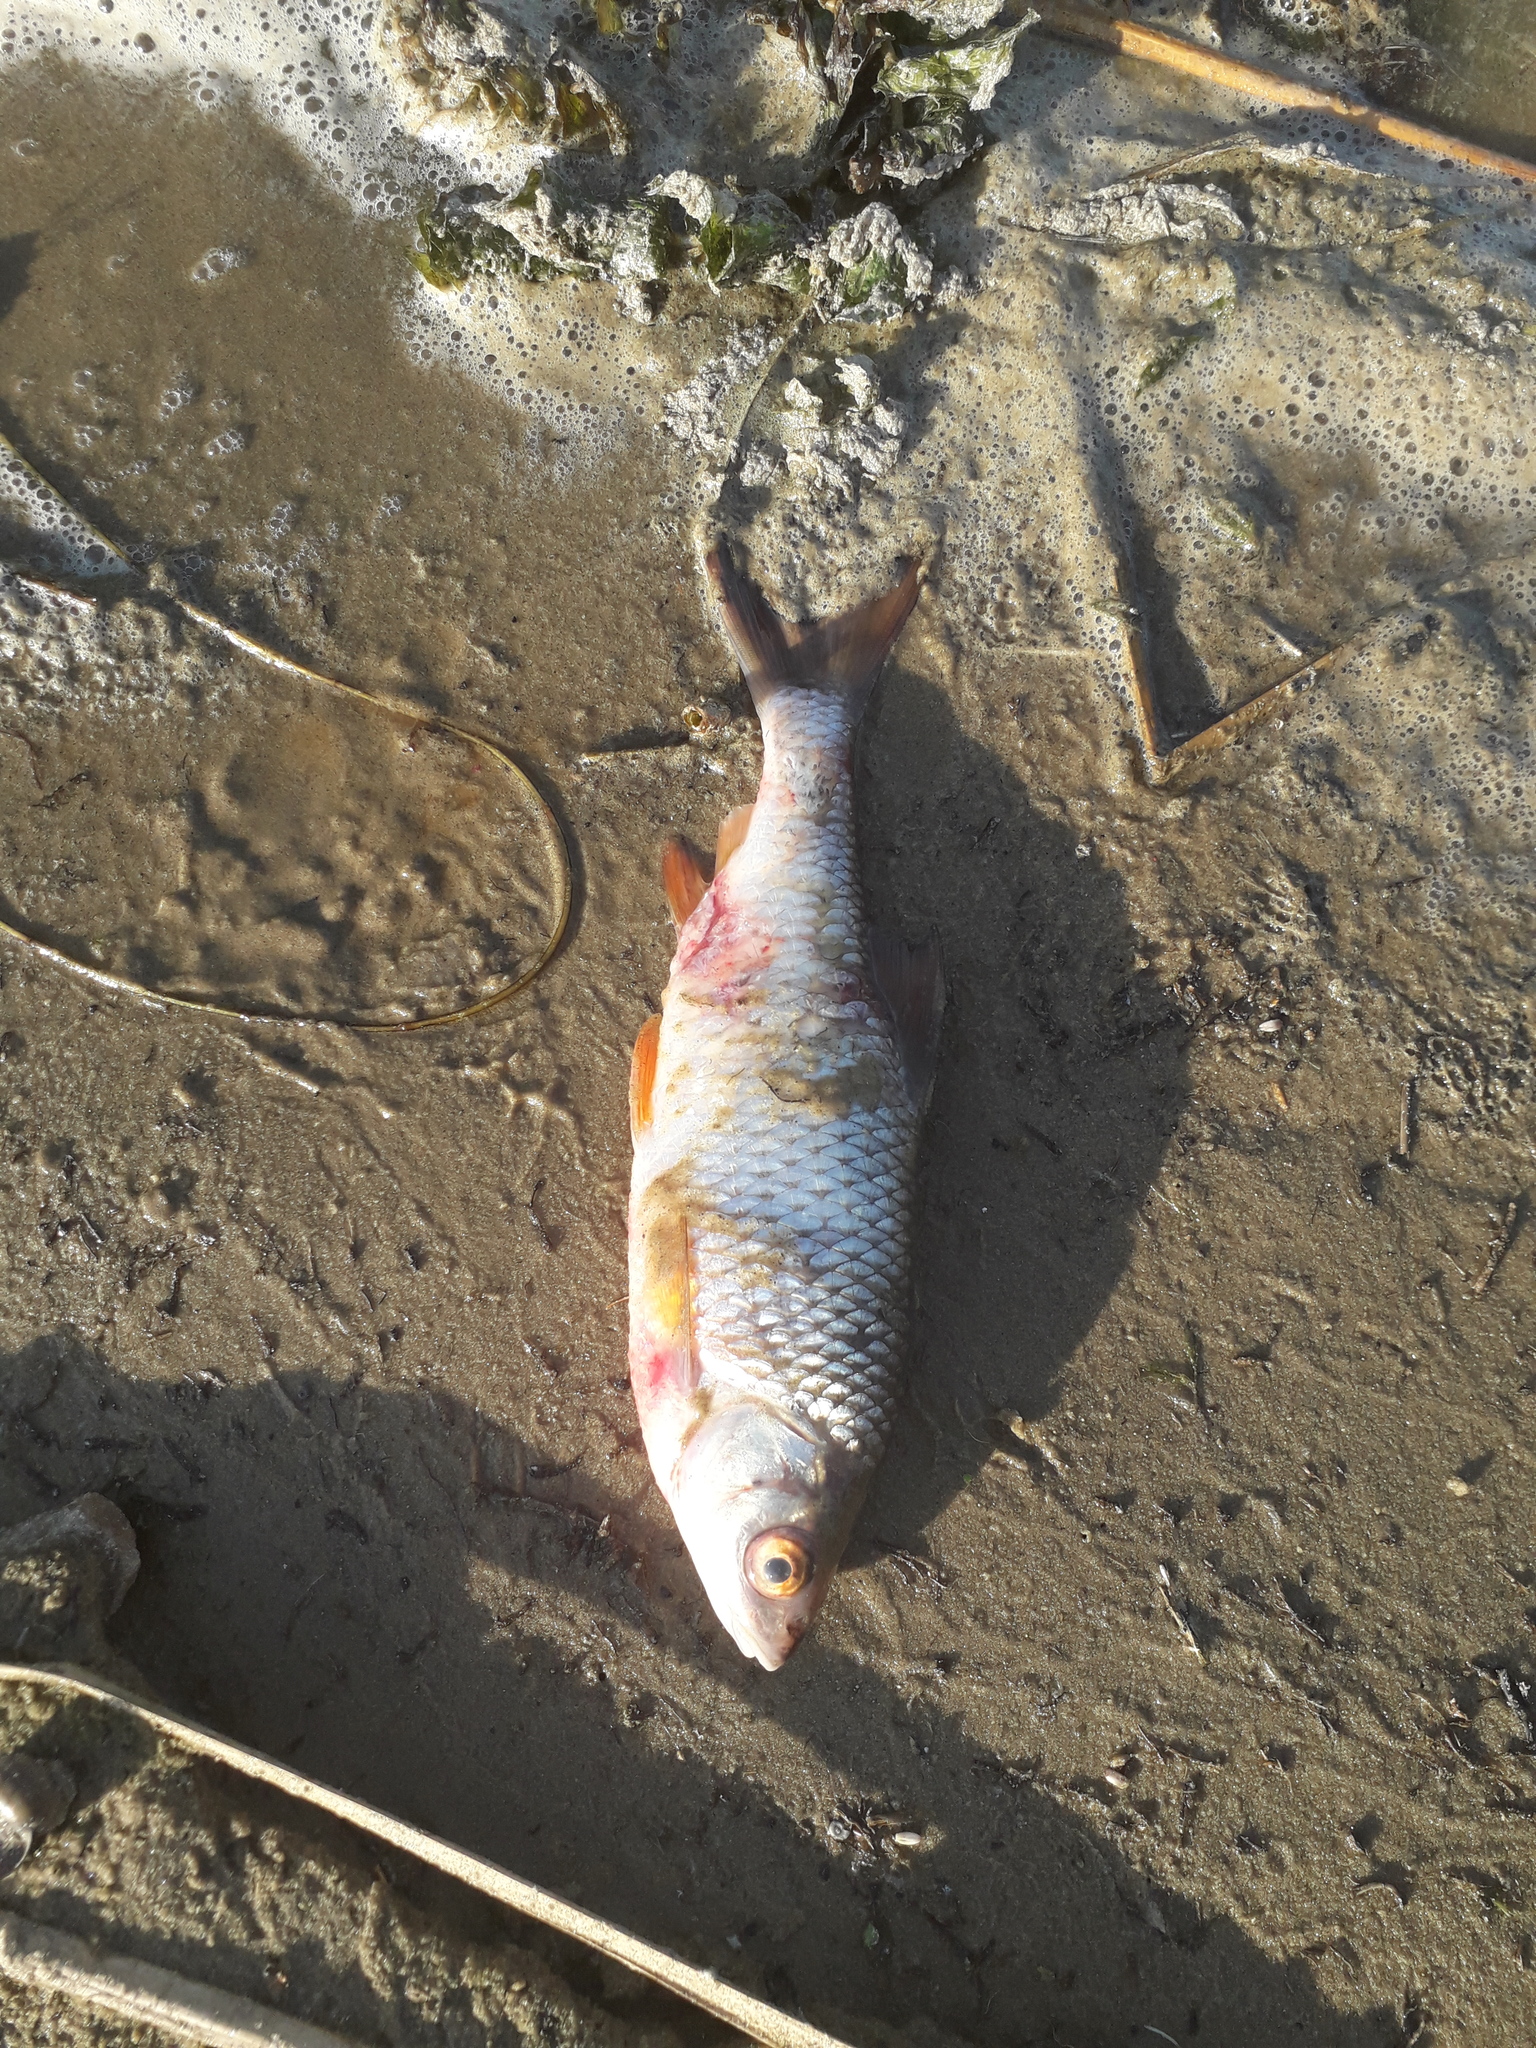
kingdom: Animalia
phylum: Chordata
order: Cypriniformes
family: Cyprinidae
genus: Rutilus
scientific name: Rutilus rutilus
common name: Roach
